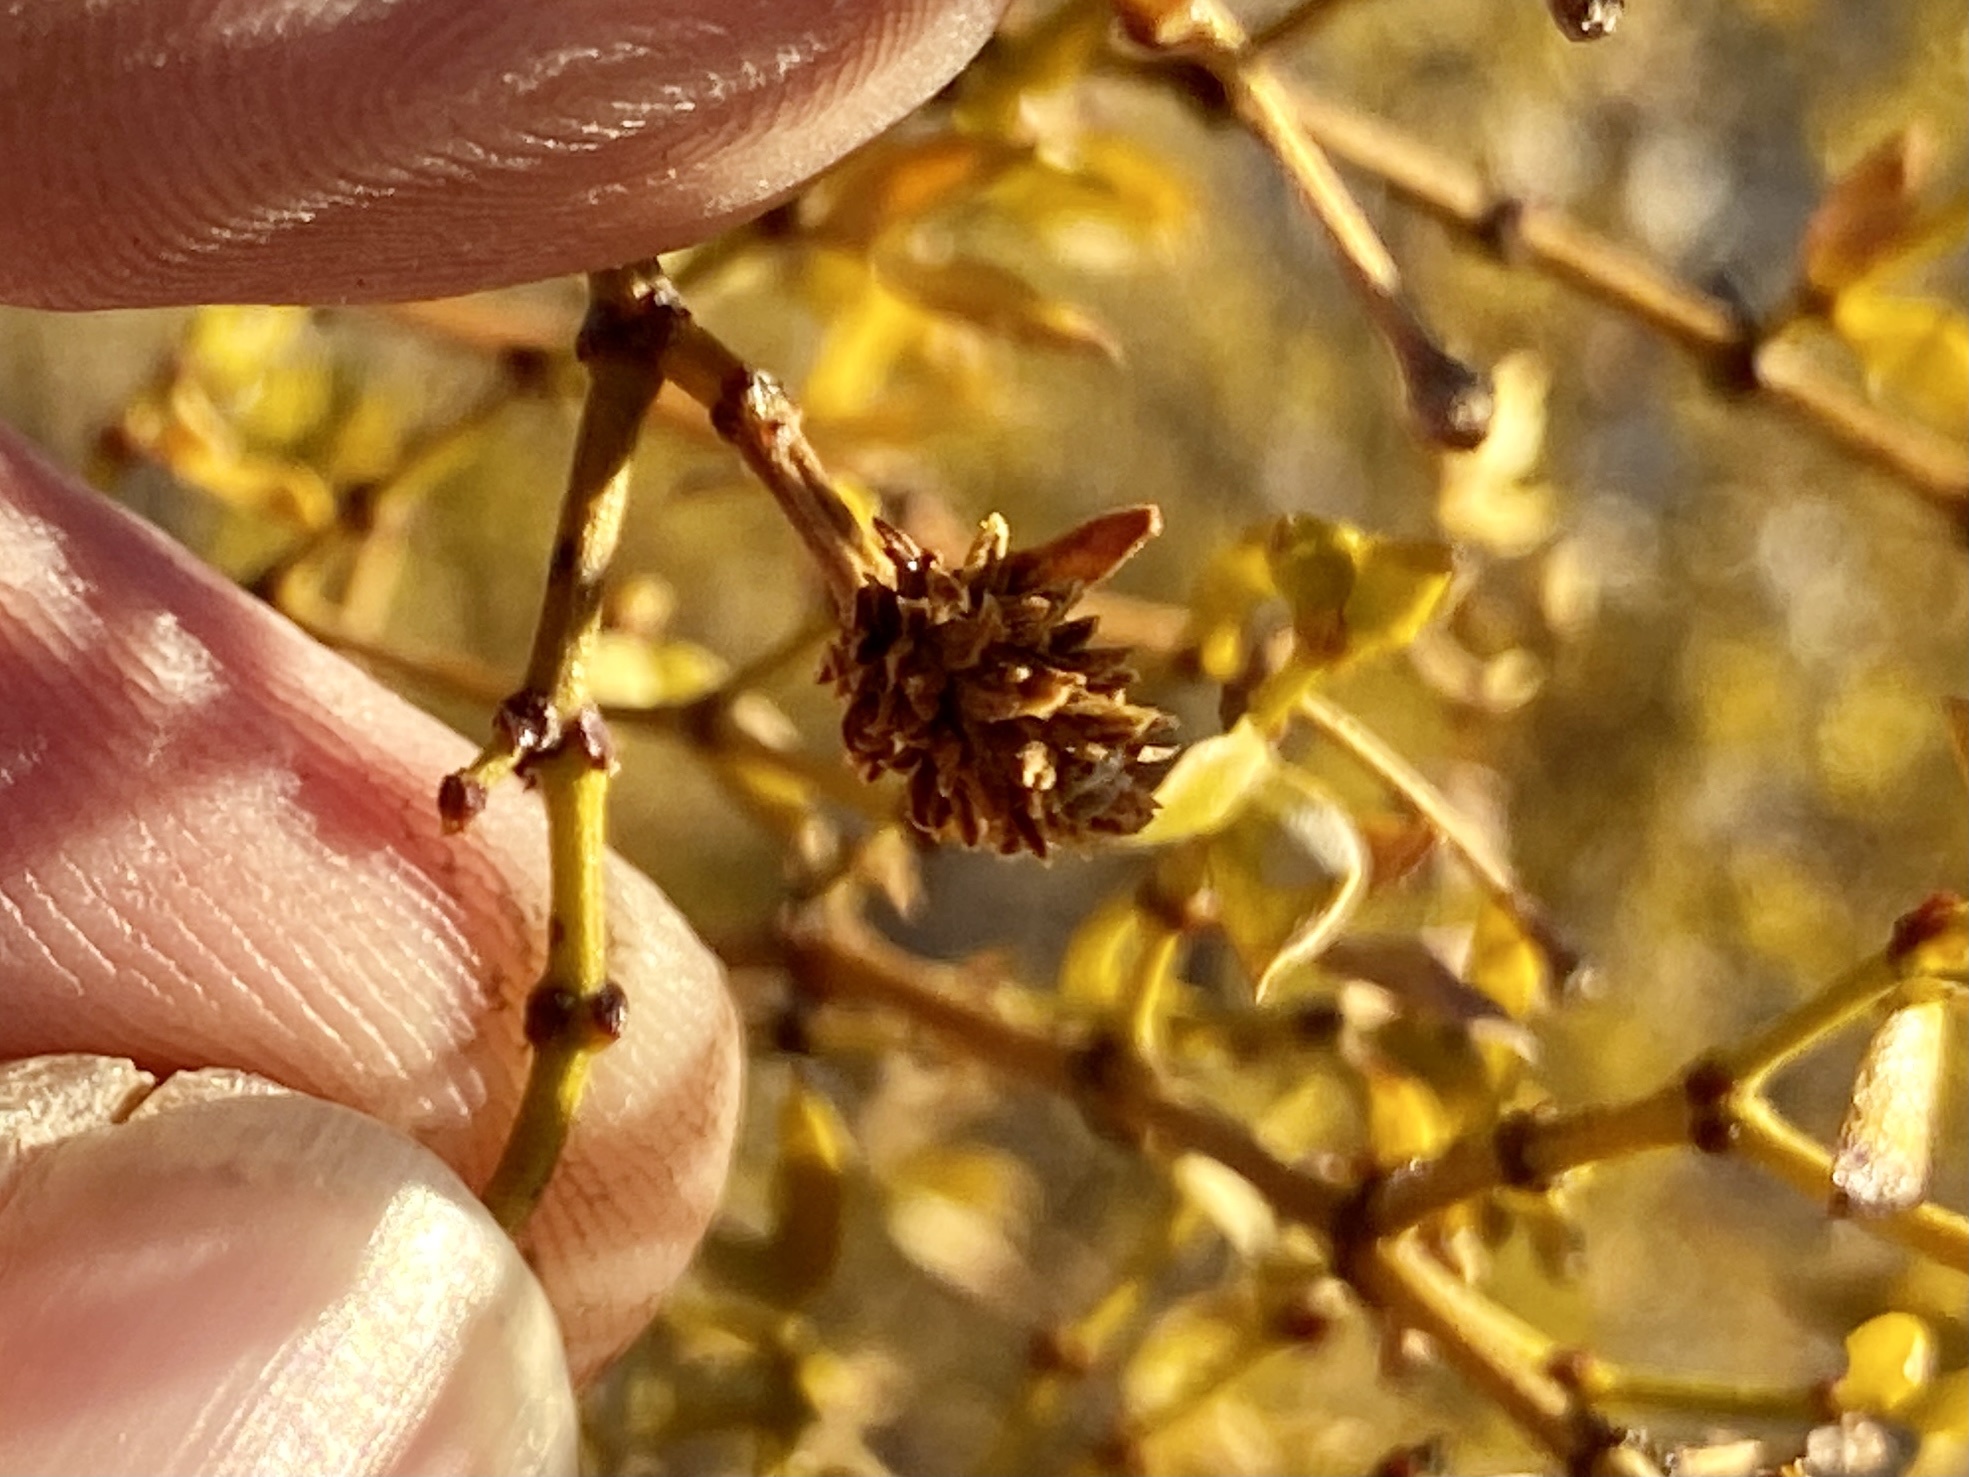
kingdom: Animalia
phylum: Arthropoda
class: Insecta
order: Diptera
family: Cecidomyiidae
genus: Asphondylia
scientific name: Asphondylia rosetta
